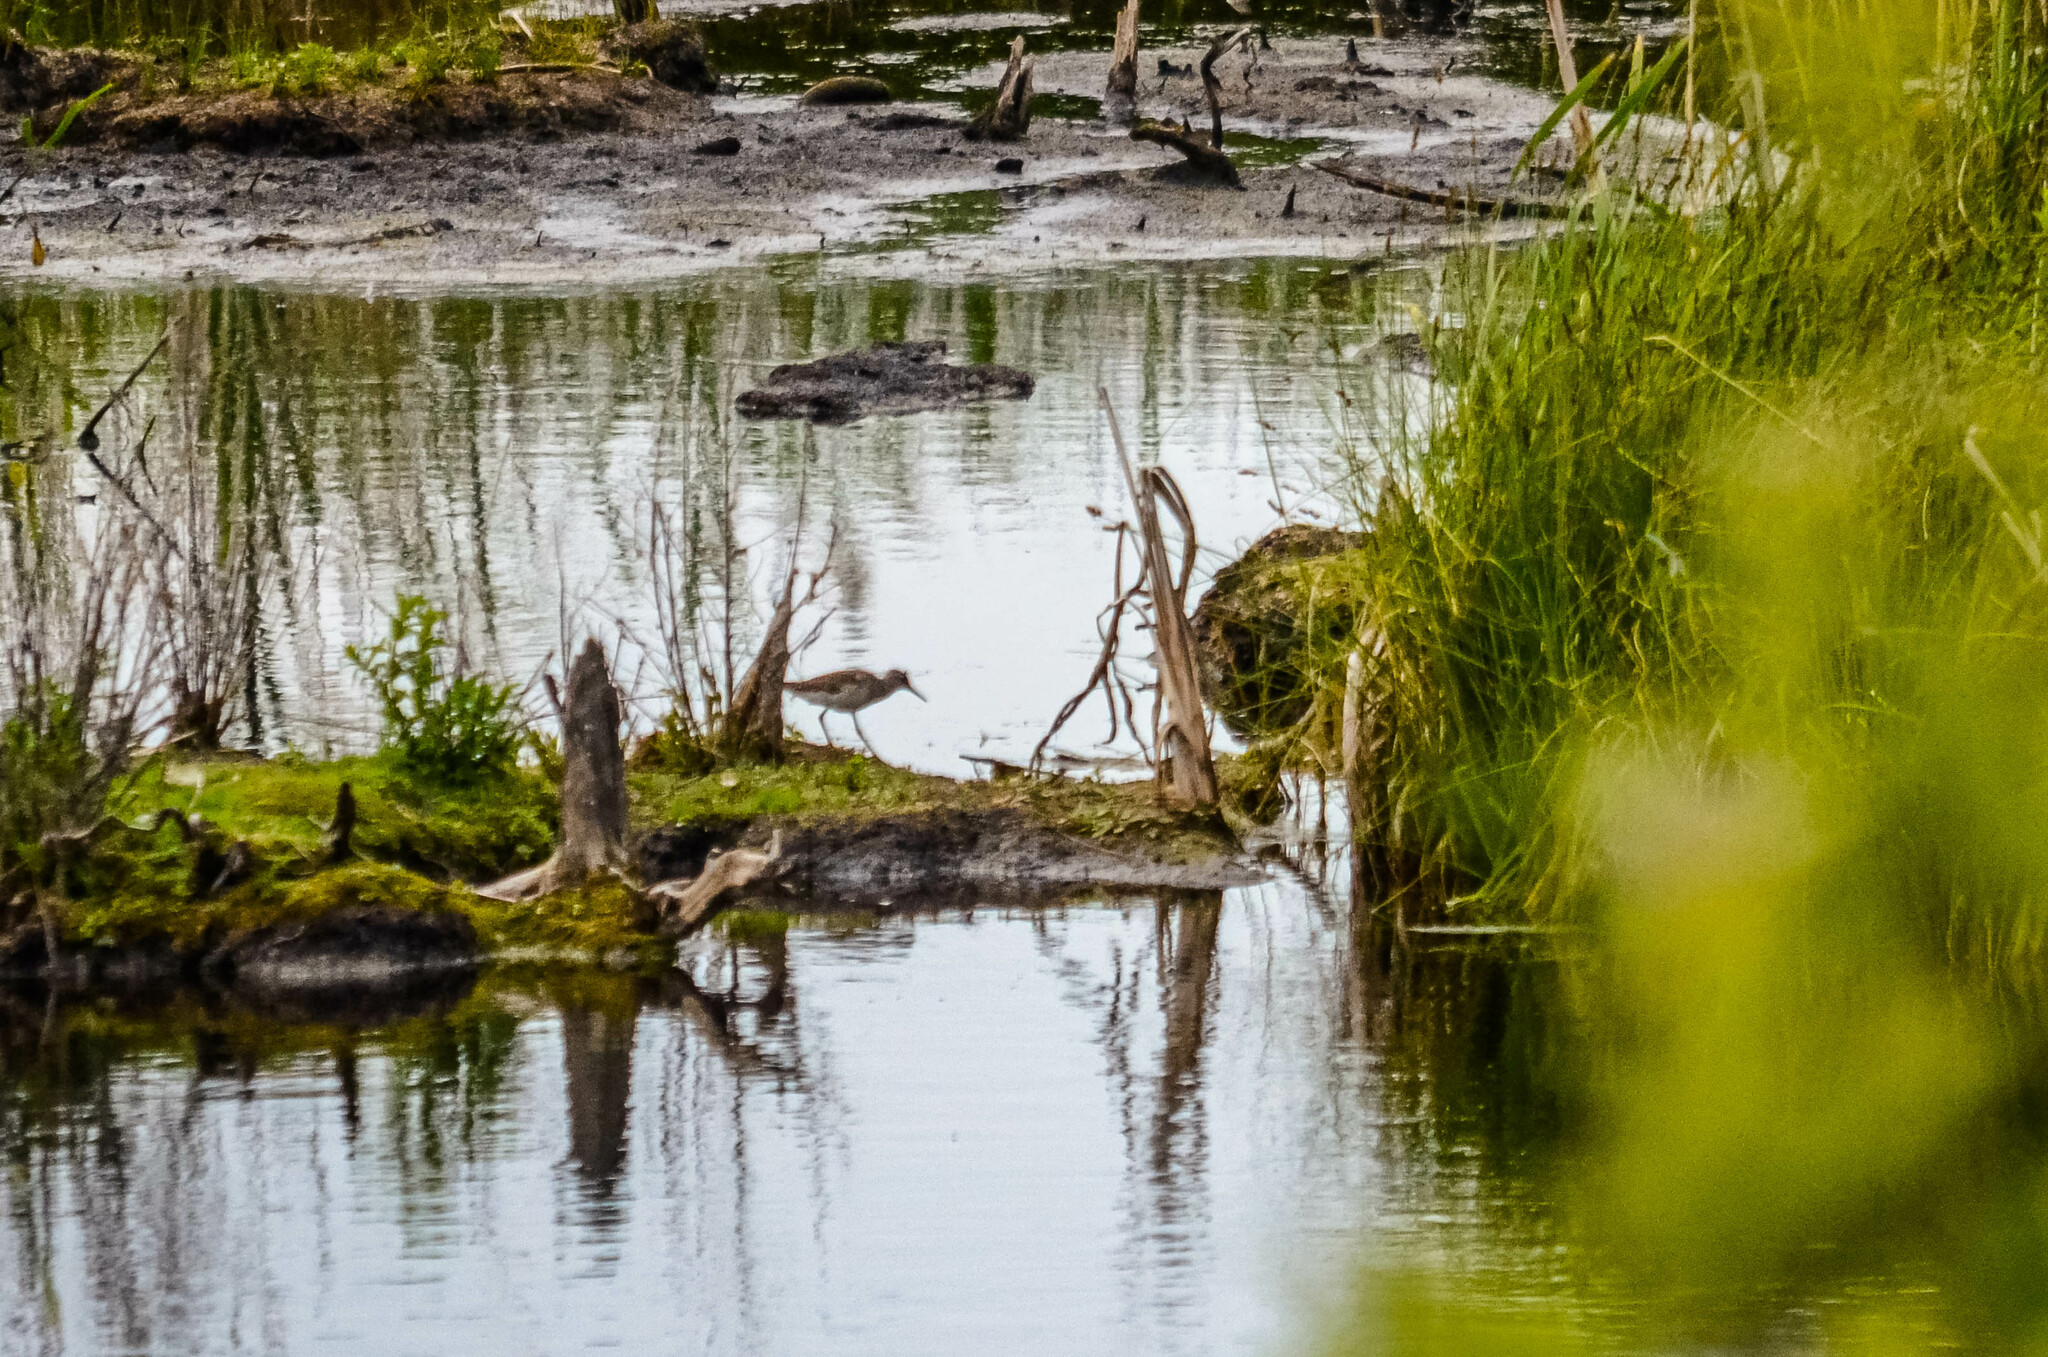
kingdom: Animalia
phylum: Chordata
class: Aves
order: Charadriiformes
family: Scolopacidae
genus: Tringa
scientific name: Tringa glareola
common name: Wood sandpiper
